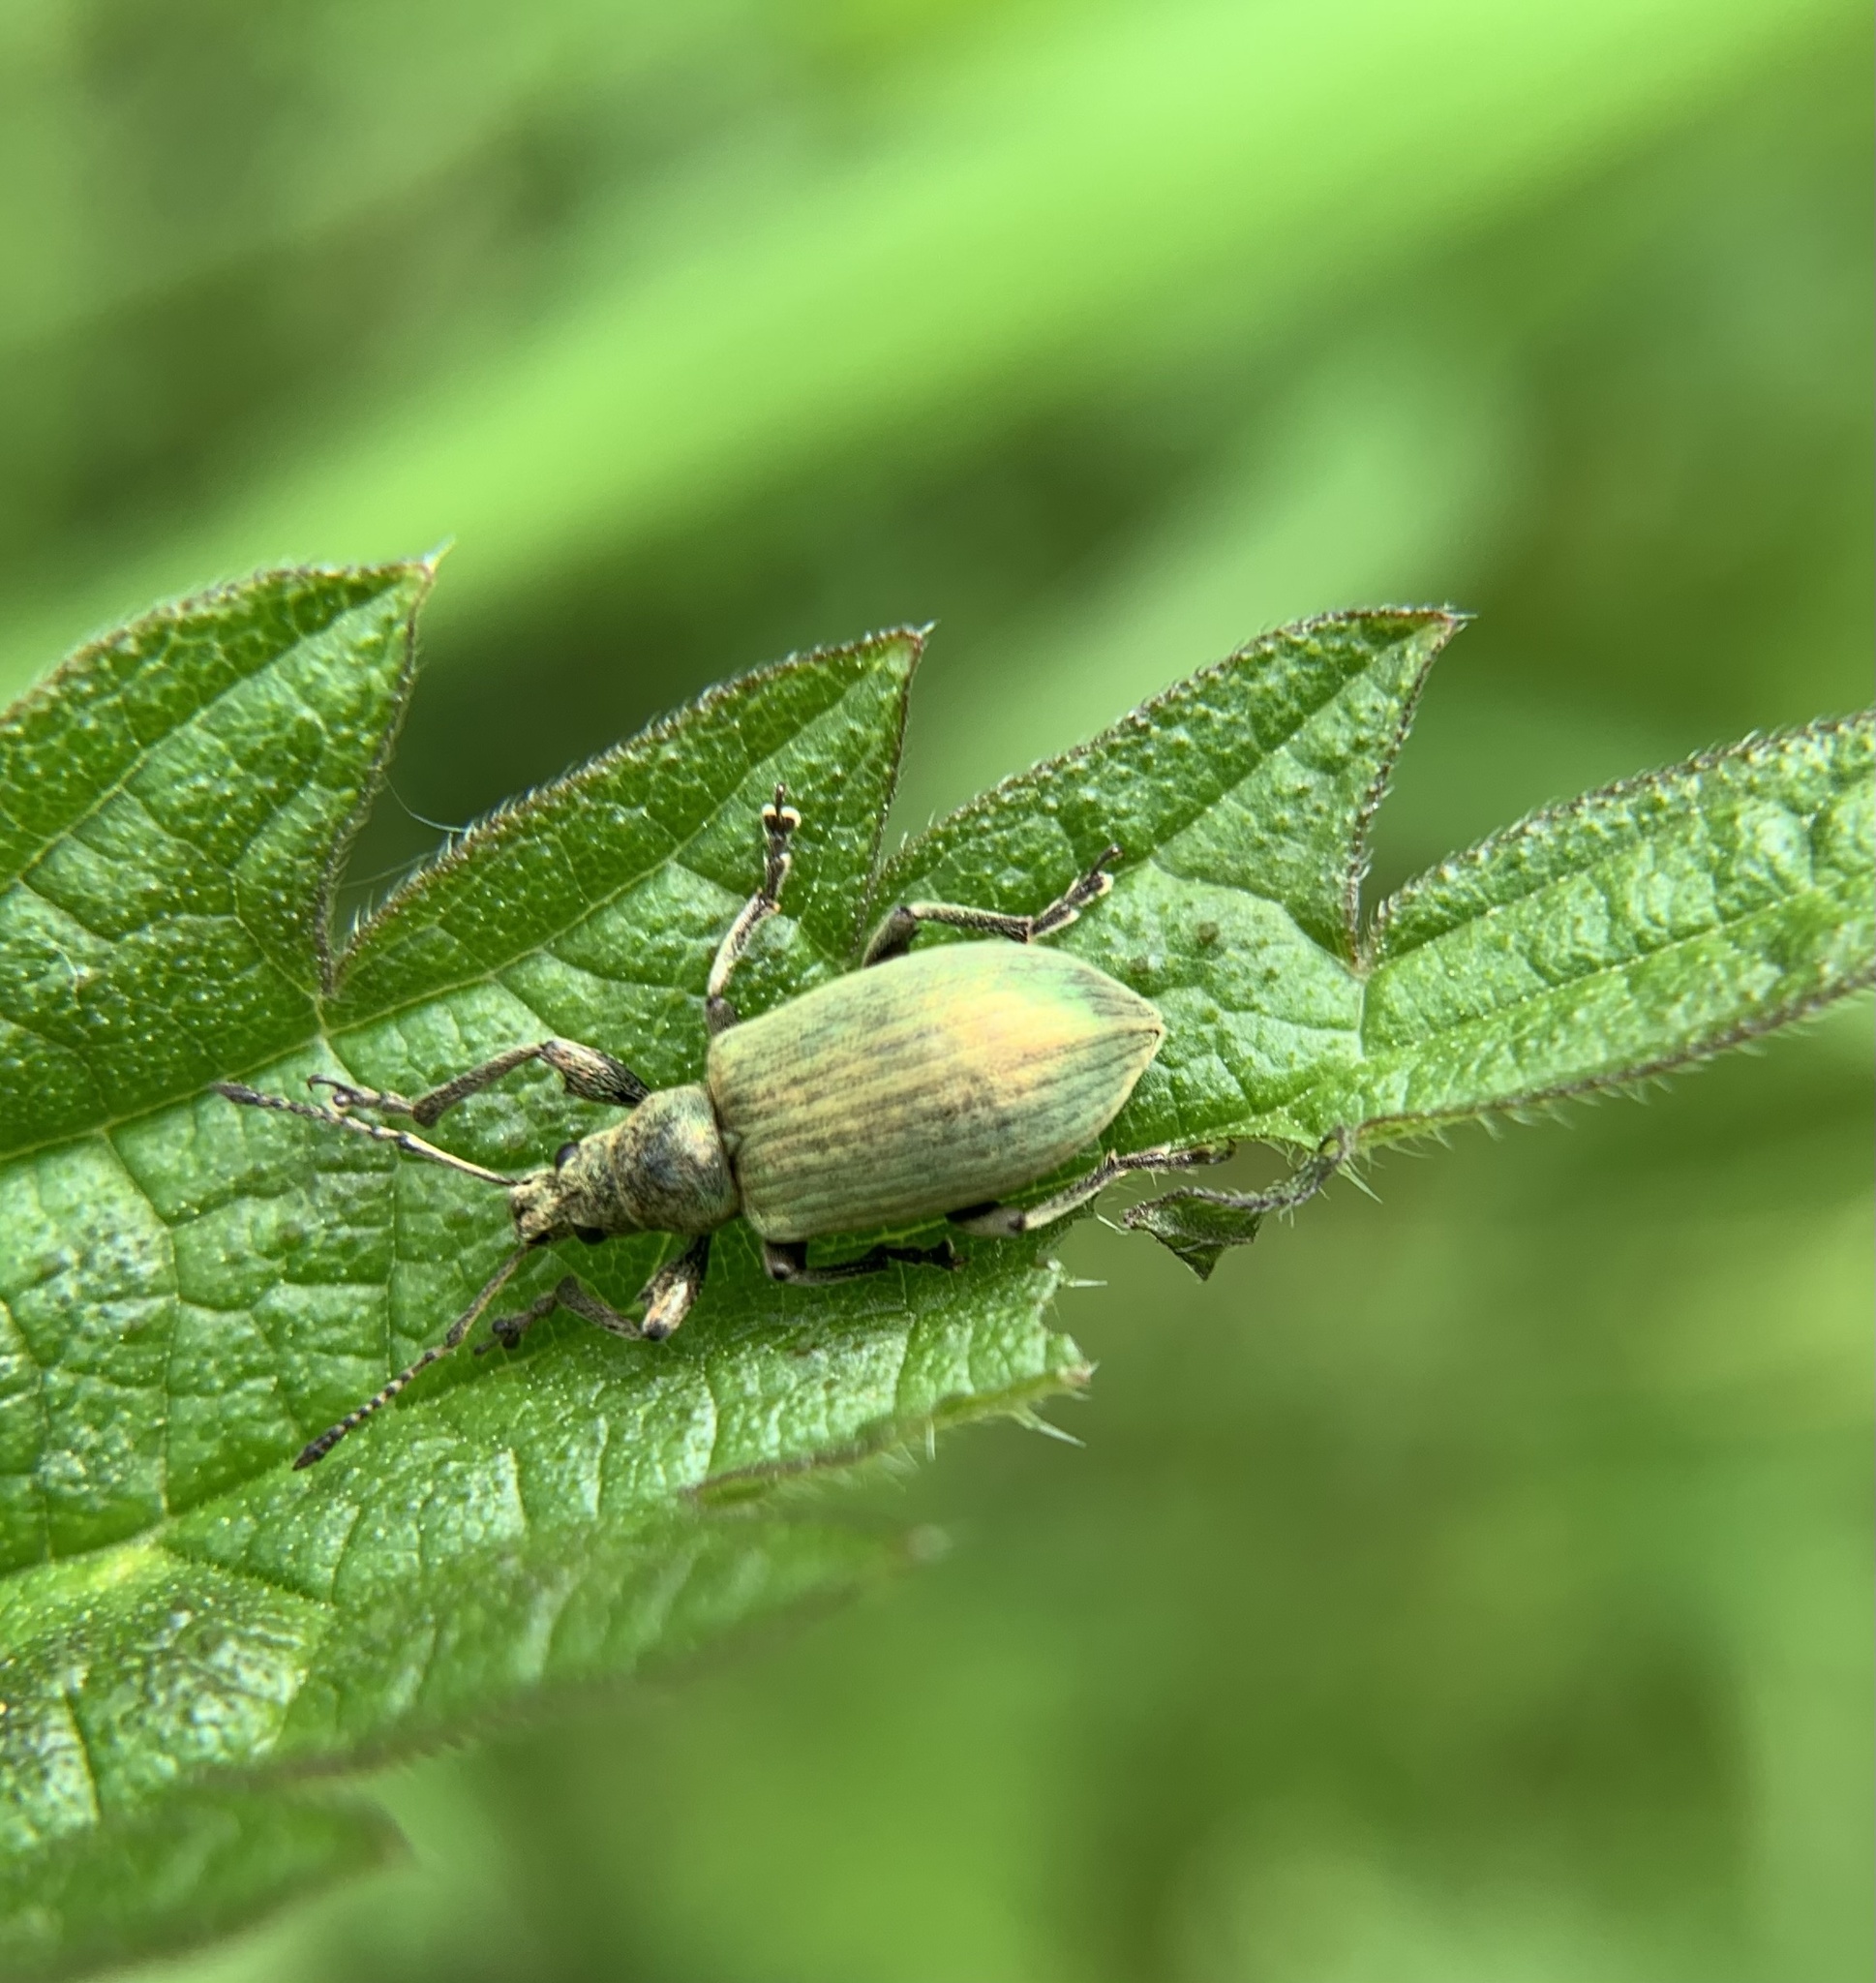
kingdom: Animalia
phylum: Arthropoda
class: Insecta
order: Coleoptera
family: Curculionidae
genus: Phyllobius
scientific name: Phyllobius pomaceus
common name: Green nettle weevil
